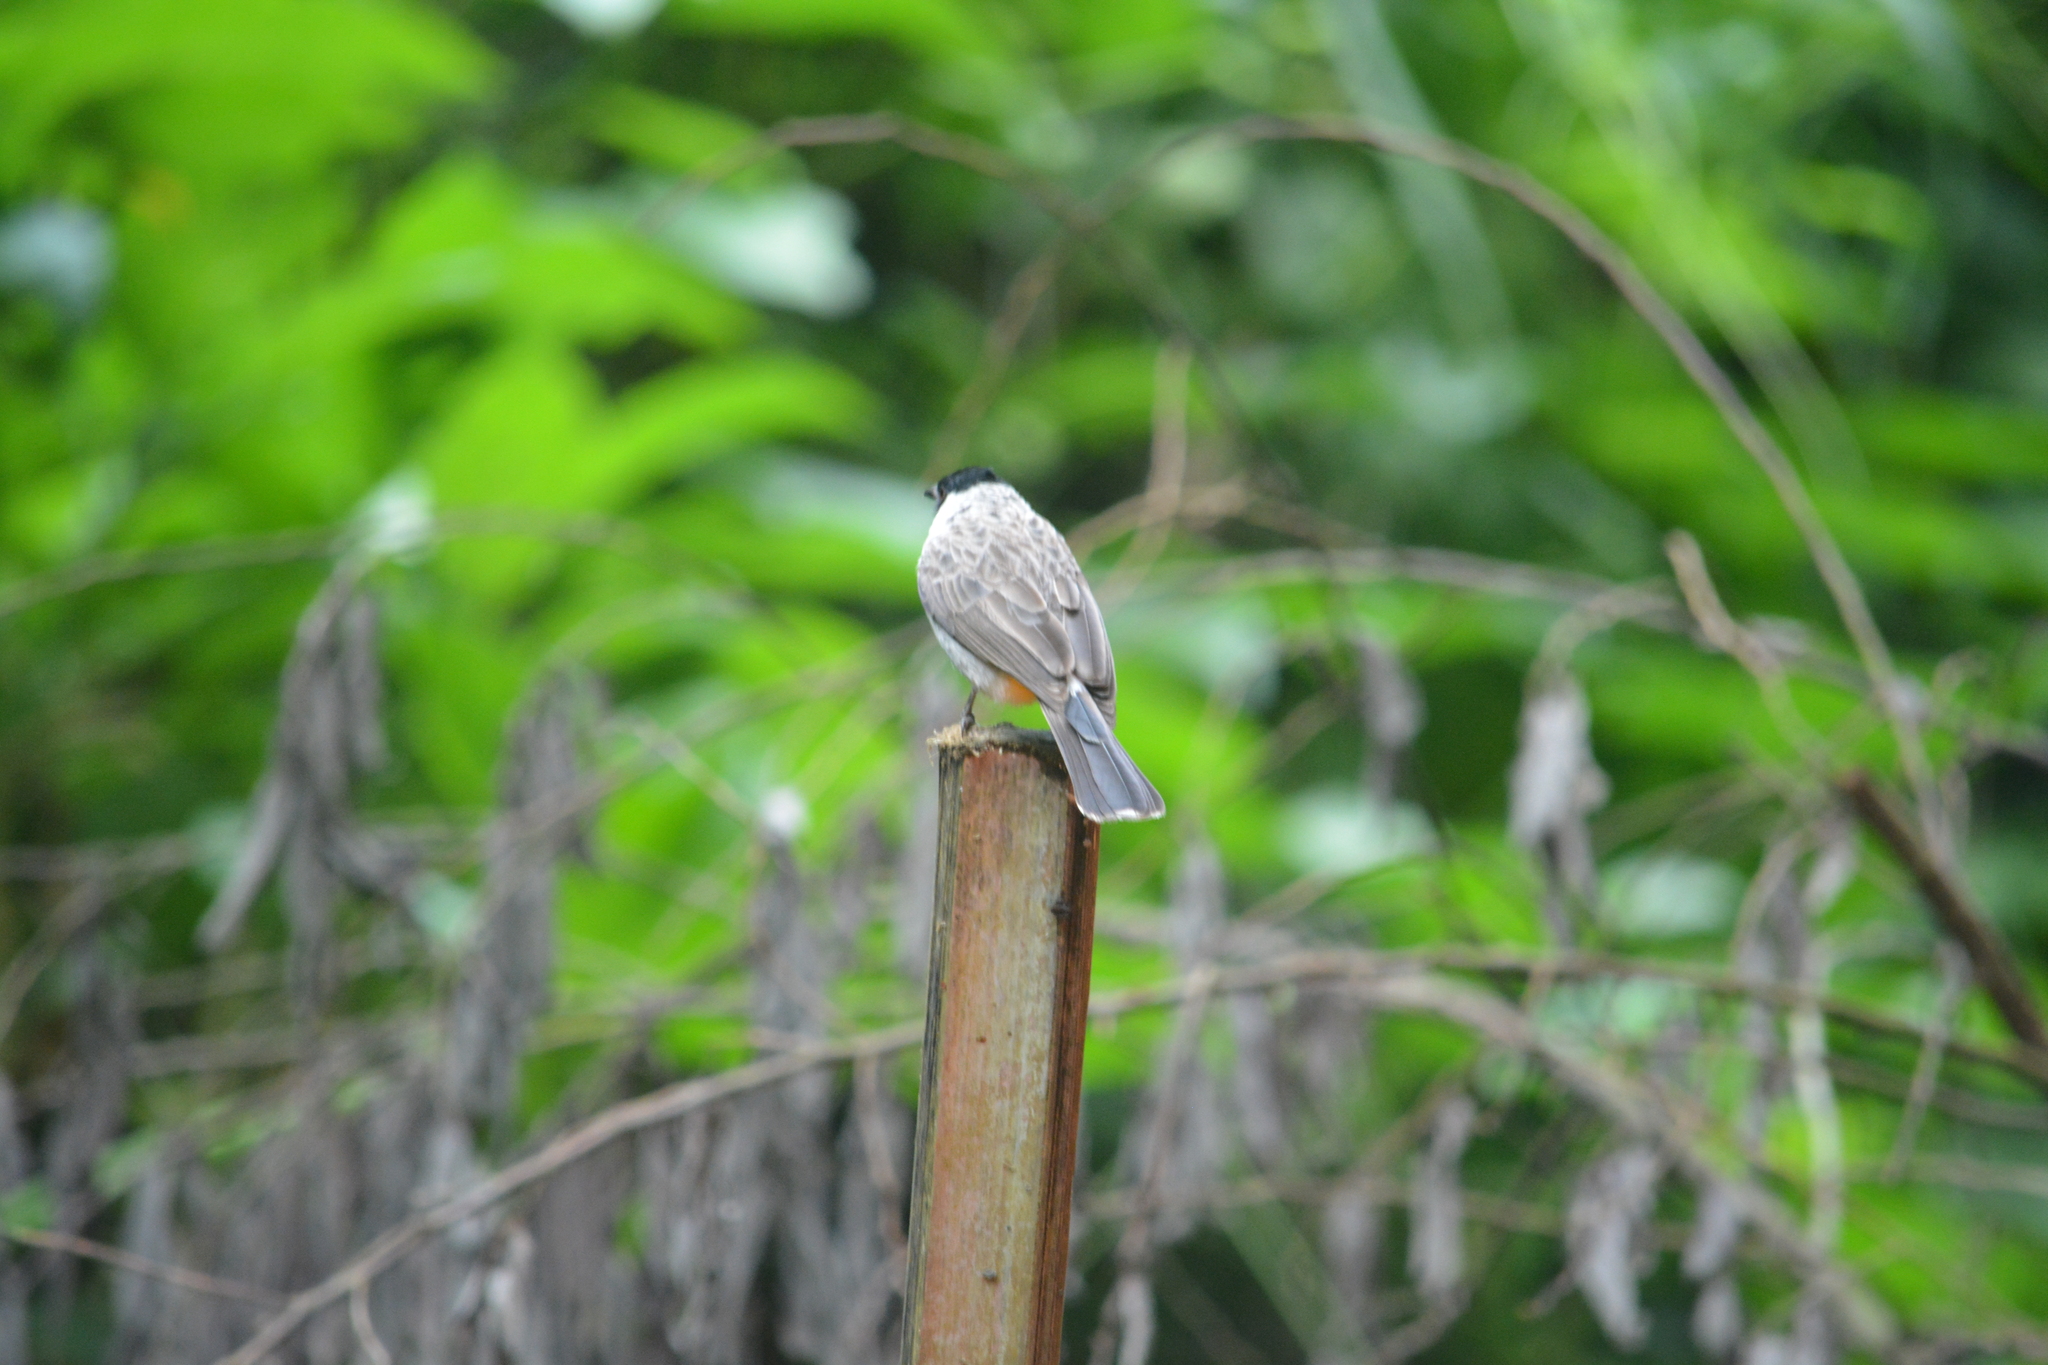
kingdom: Animalia
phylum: Chordata
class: Aves
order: Passeriformes
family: Pycnonotidae
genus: Pycnonotus
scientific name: Pycnonotus aurigaster
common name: Sooty-headed bulbul
